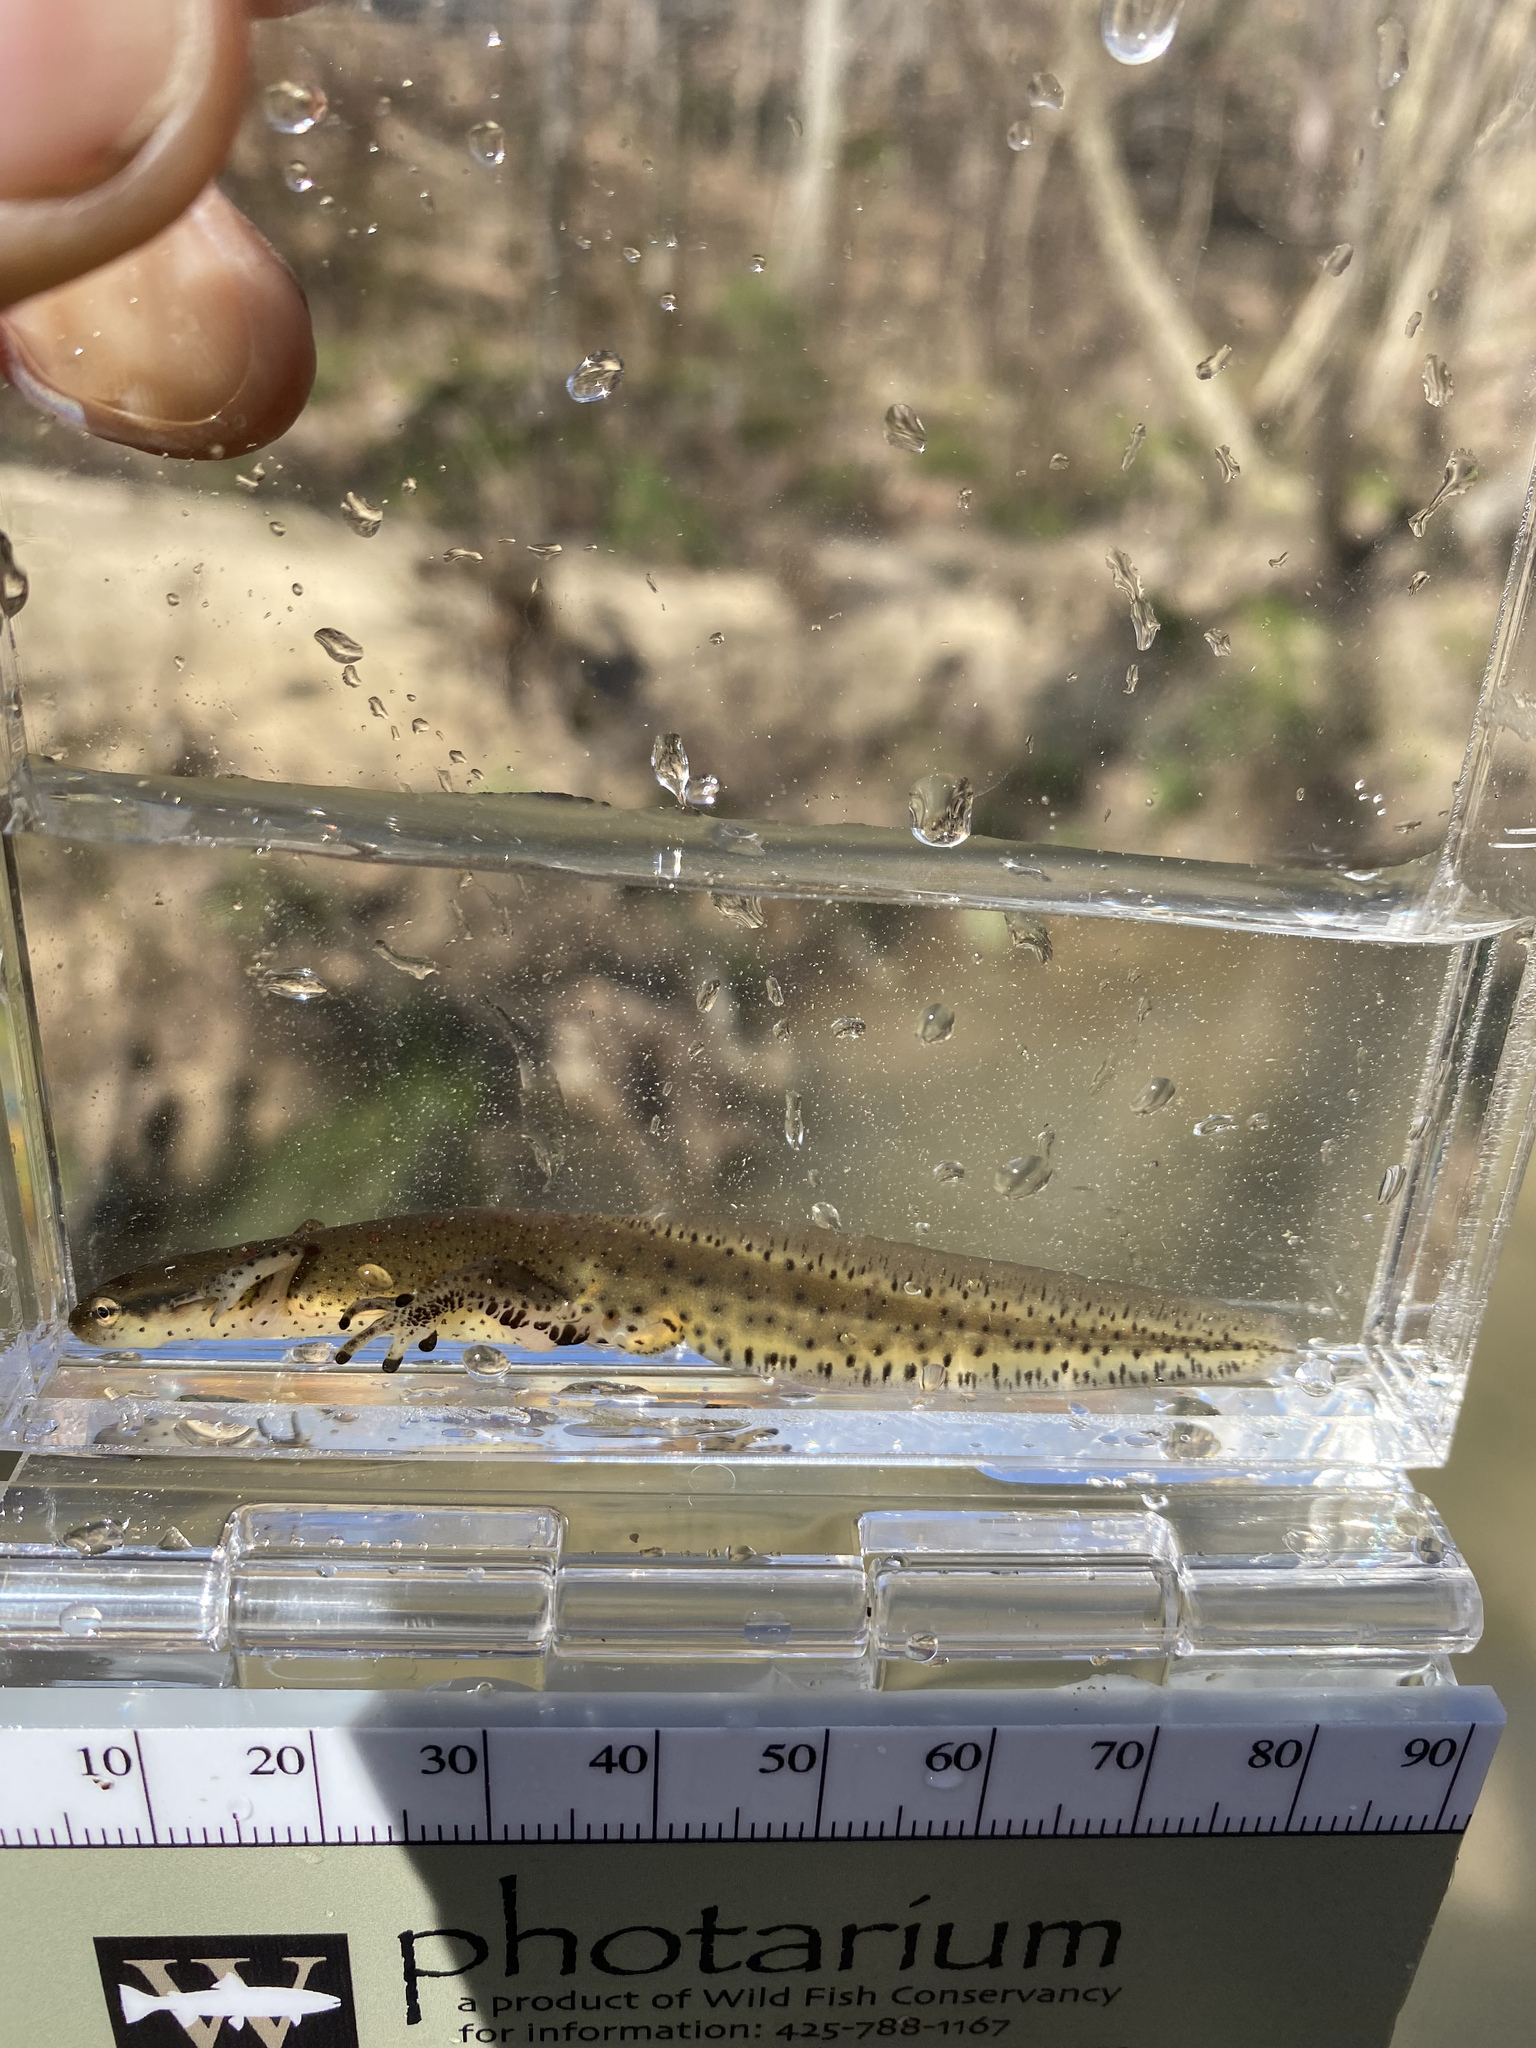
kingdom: Animalia
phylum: Chordata
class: Amphibia
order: Caudata
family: Salamandridae
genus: Notophthalmus
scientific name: Notophthalmus viridescens
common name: Eastern newt
